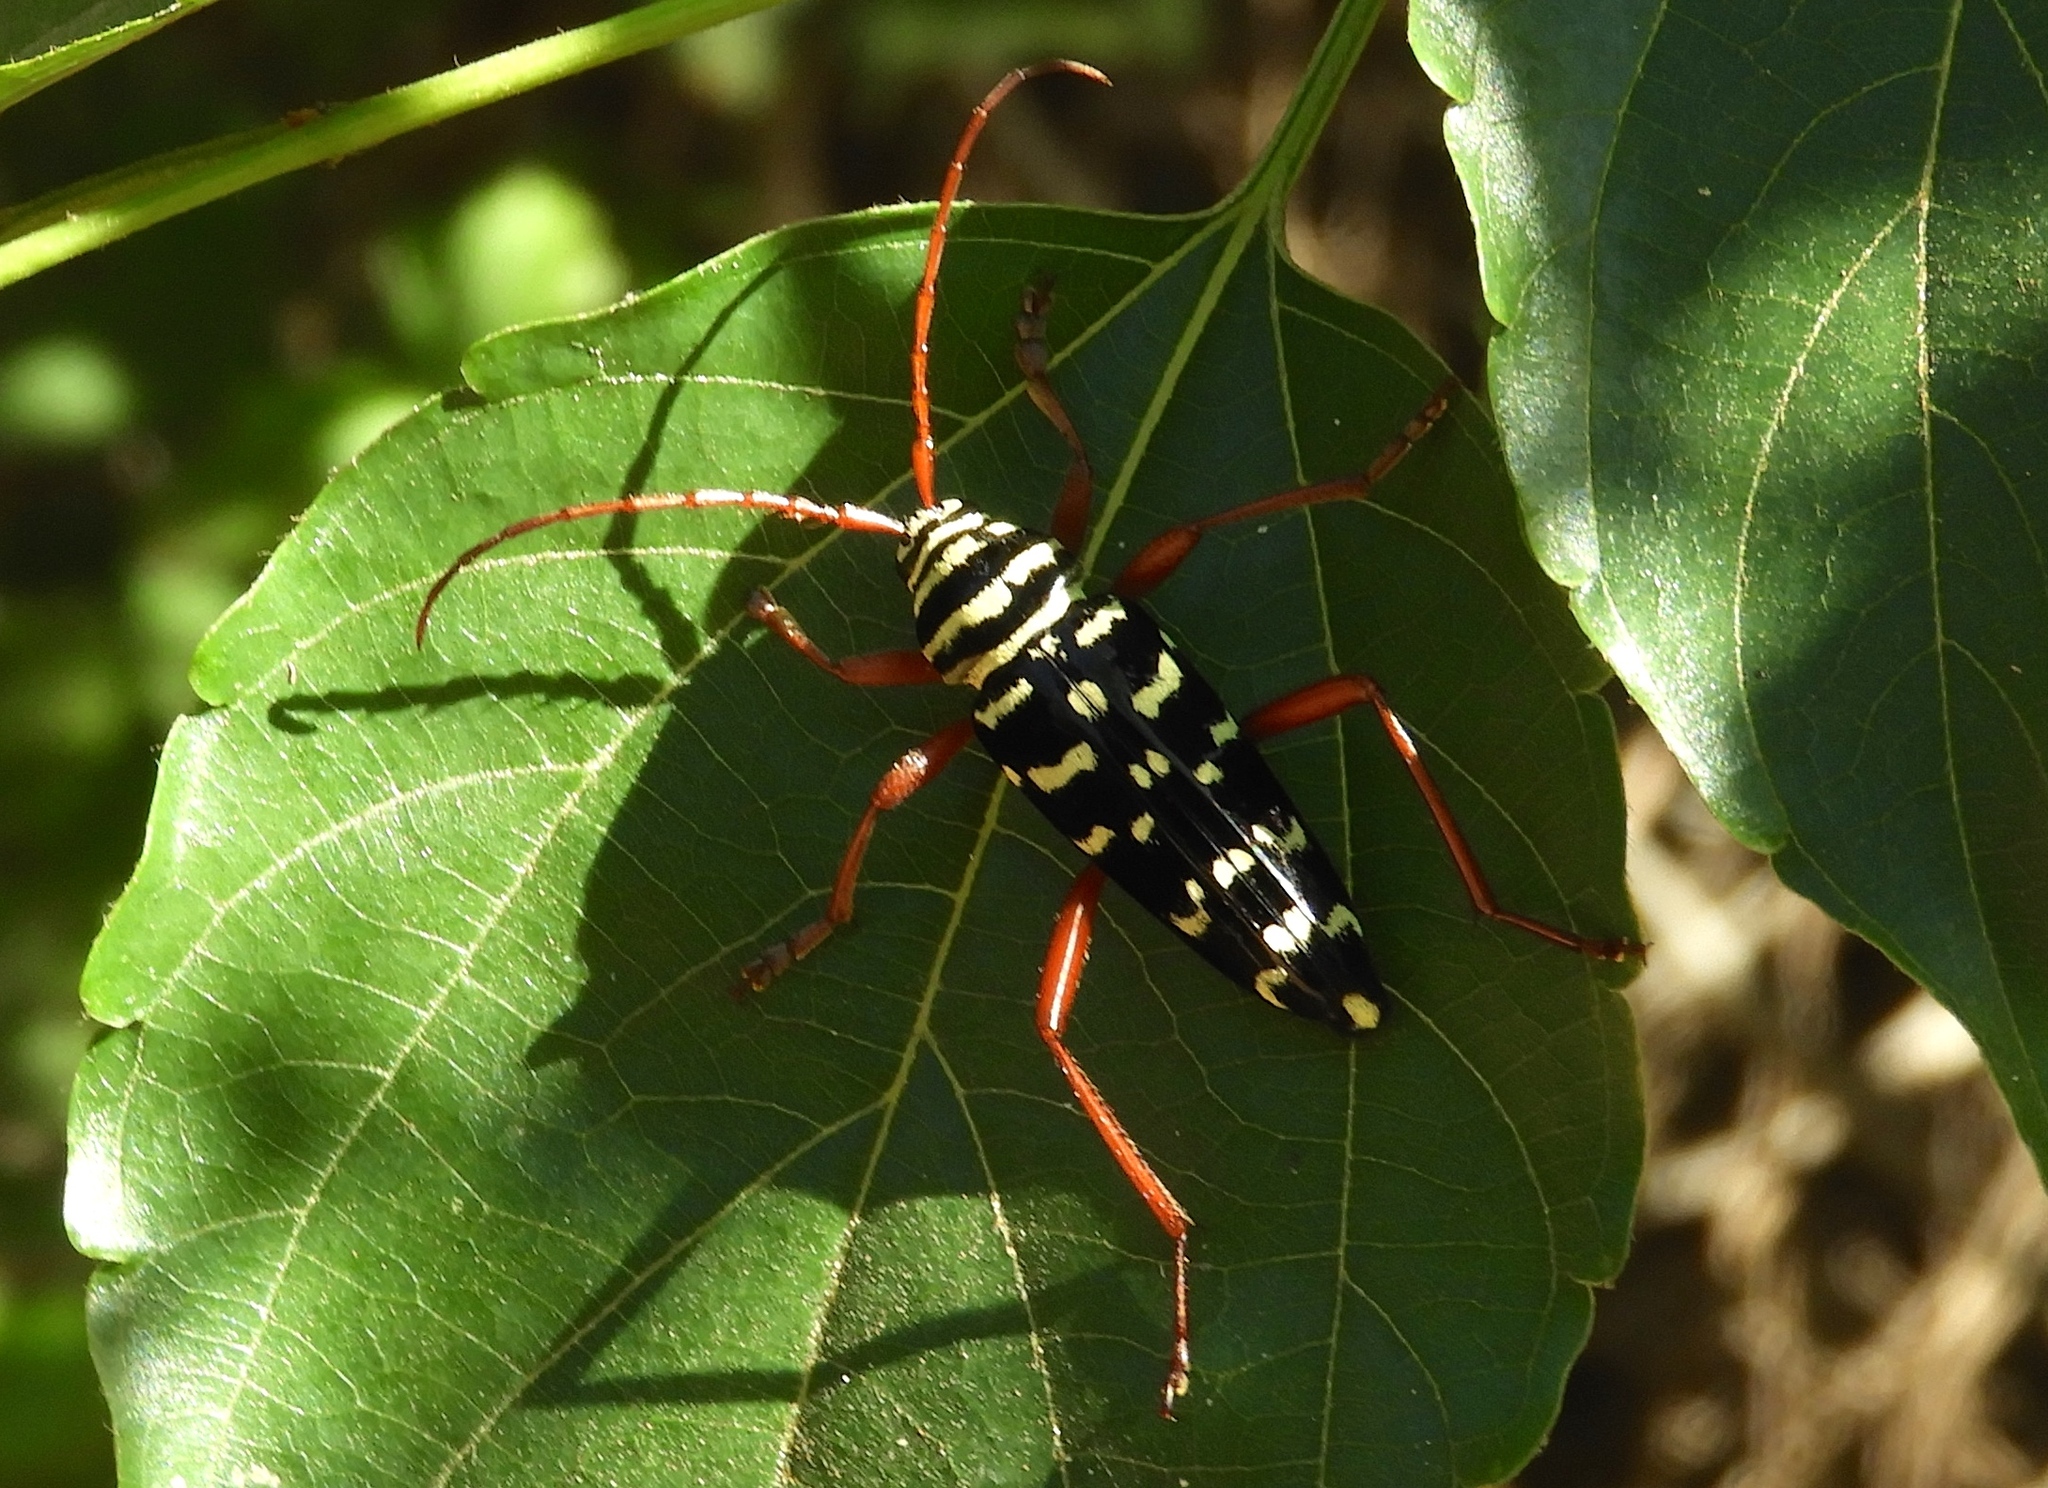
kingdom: Animalia
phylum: Arthropoda
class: Insecta
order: Coleoptera
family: Cerambycidae
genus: Placosternus
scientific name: Placosternus erythropus
